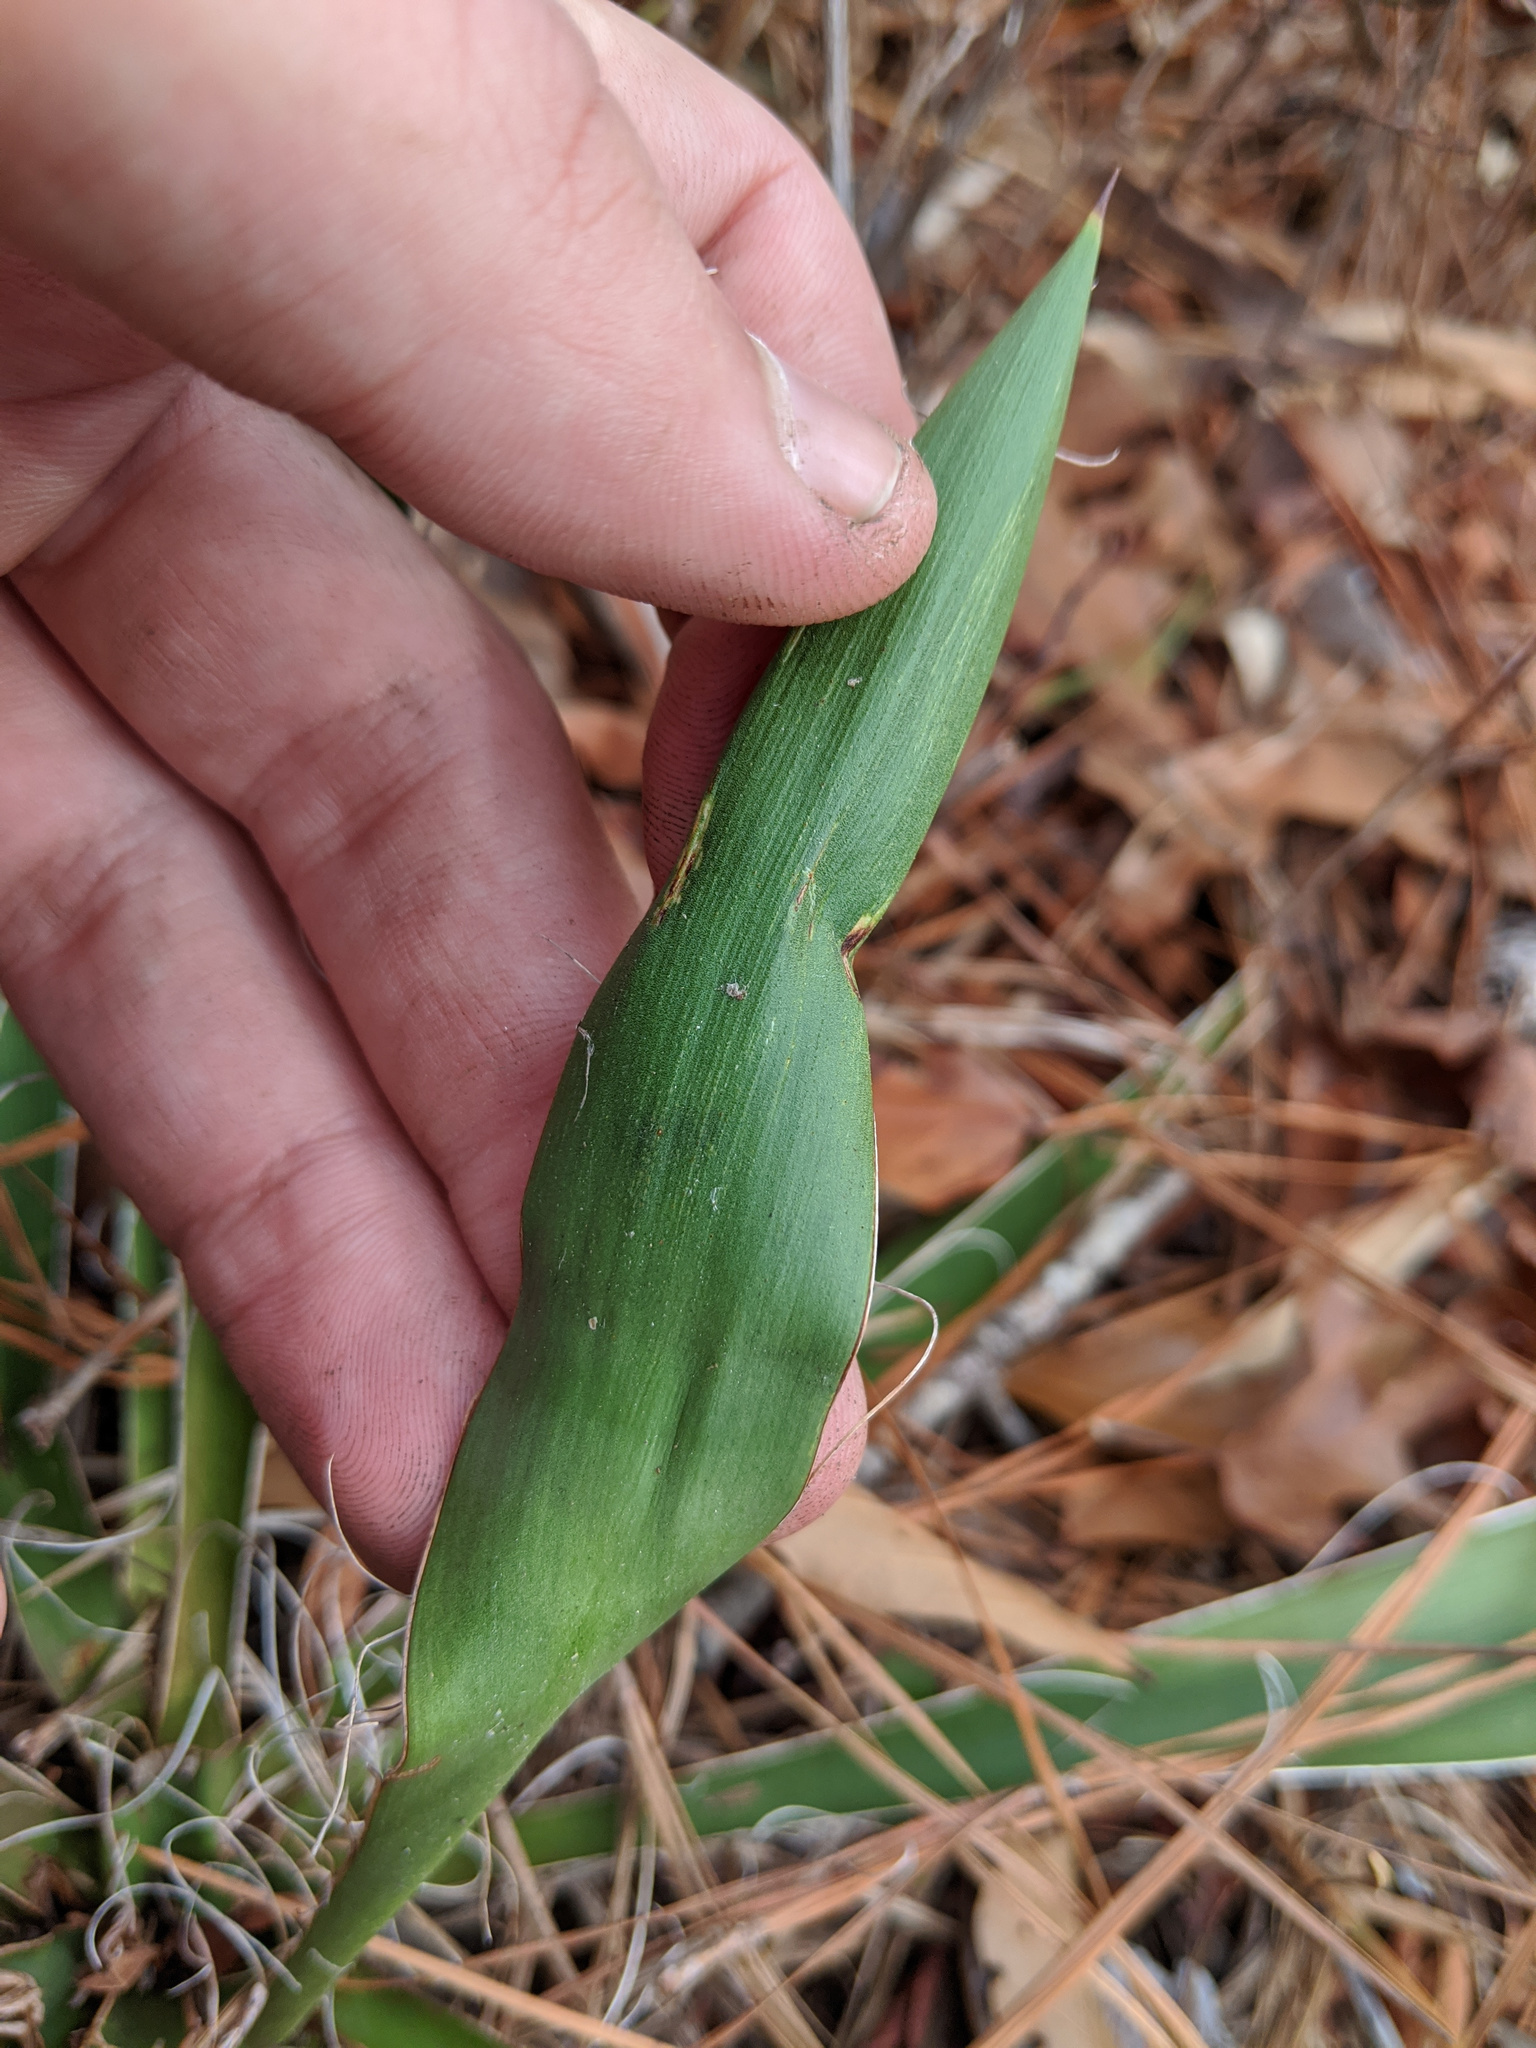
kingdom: Plantae
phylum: Tracheophyta
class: Liliopsida
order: Asparagales
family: Asparagaceae
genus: Yucca
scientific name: Yucca filamentosa
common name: Adam's-needle
